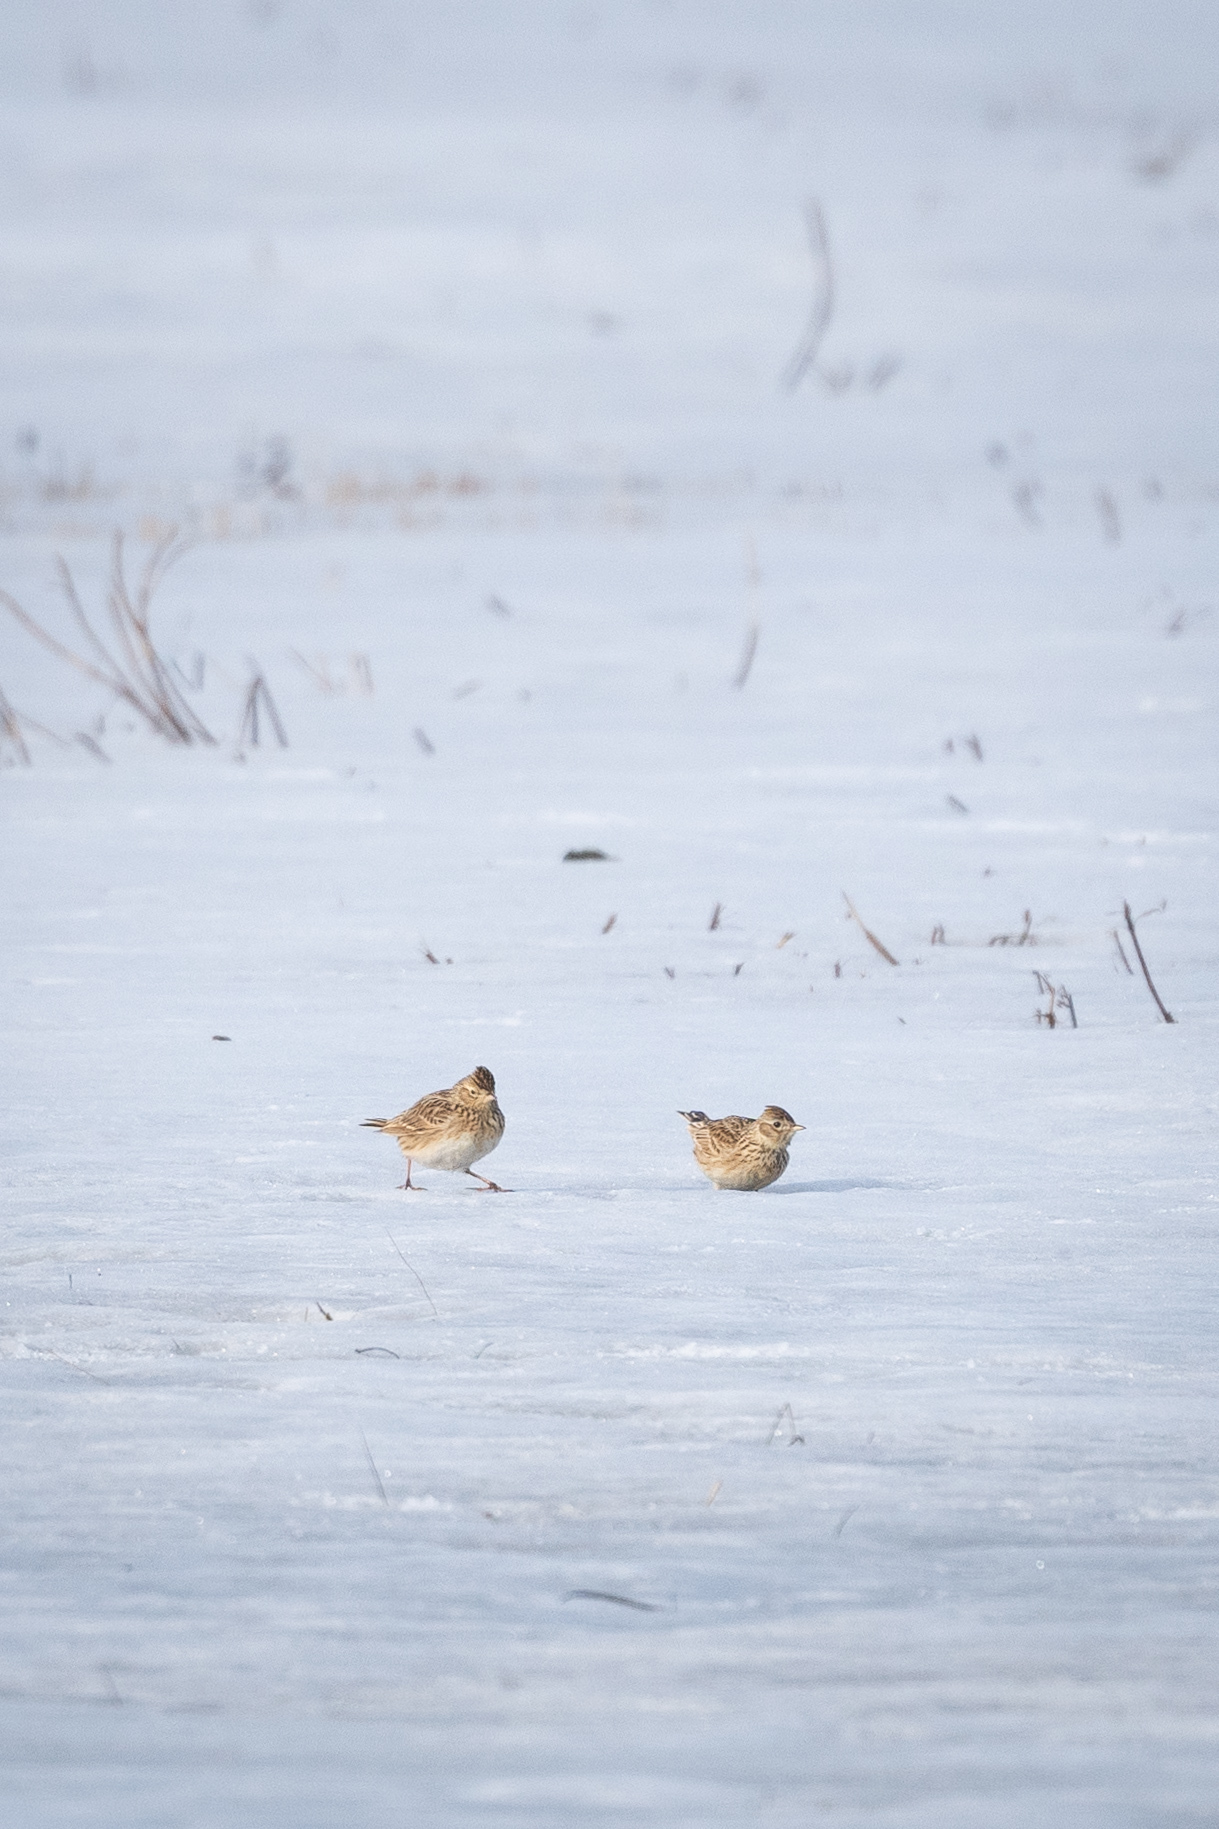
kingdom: Animalia
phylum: Chordata
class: Aves
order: Passeriformes
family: Alaudidae
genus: Alauda
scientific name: Alauda arvensis
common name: Eurasian skylark
